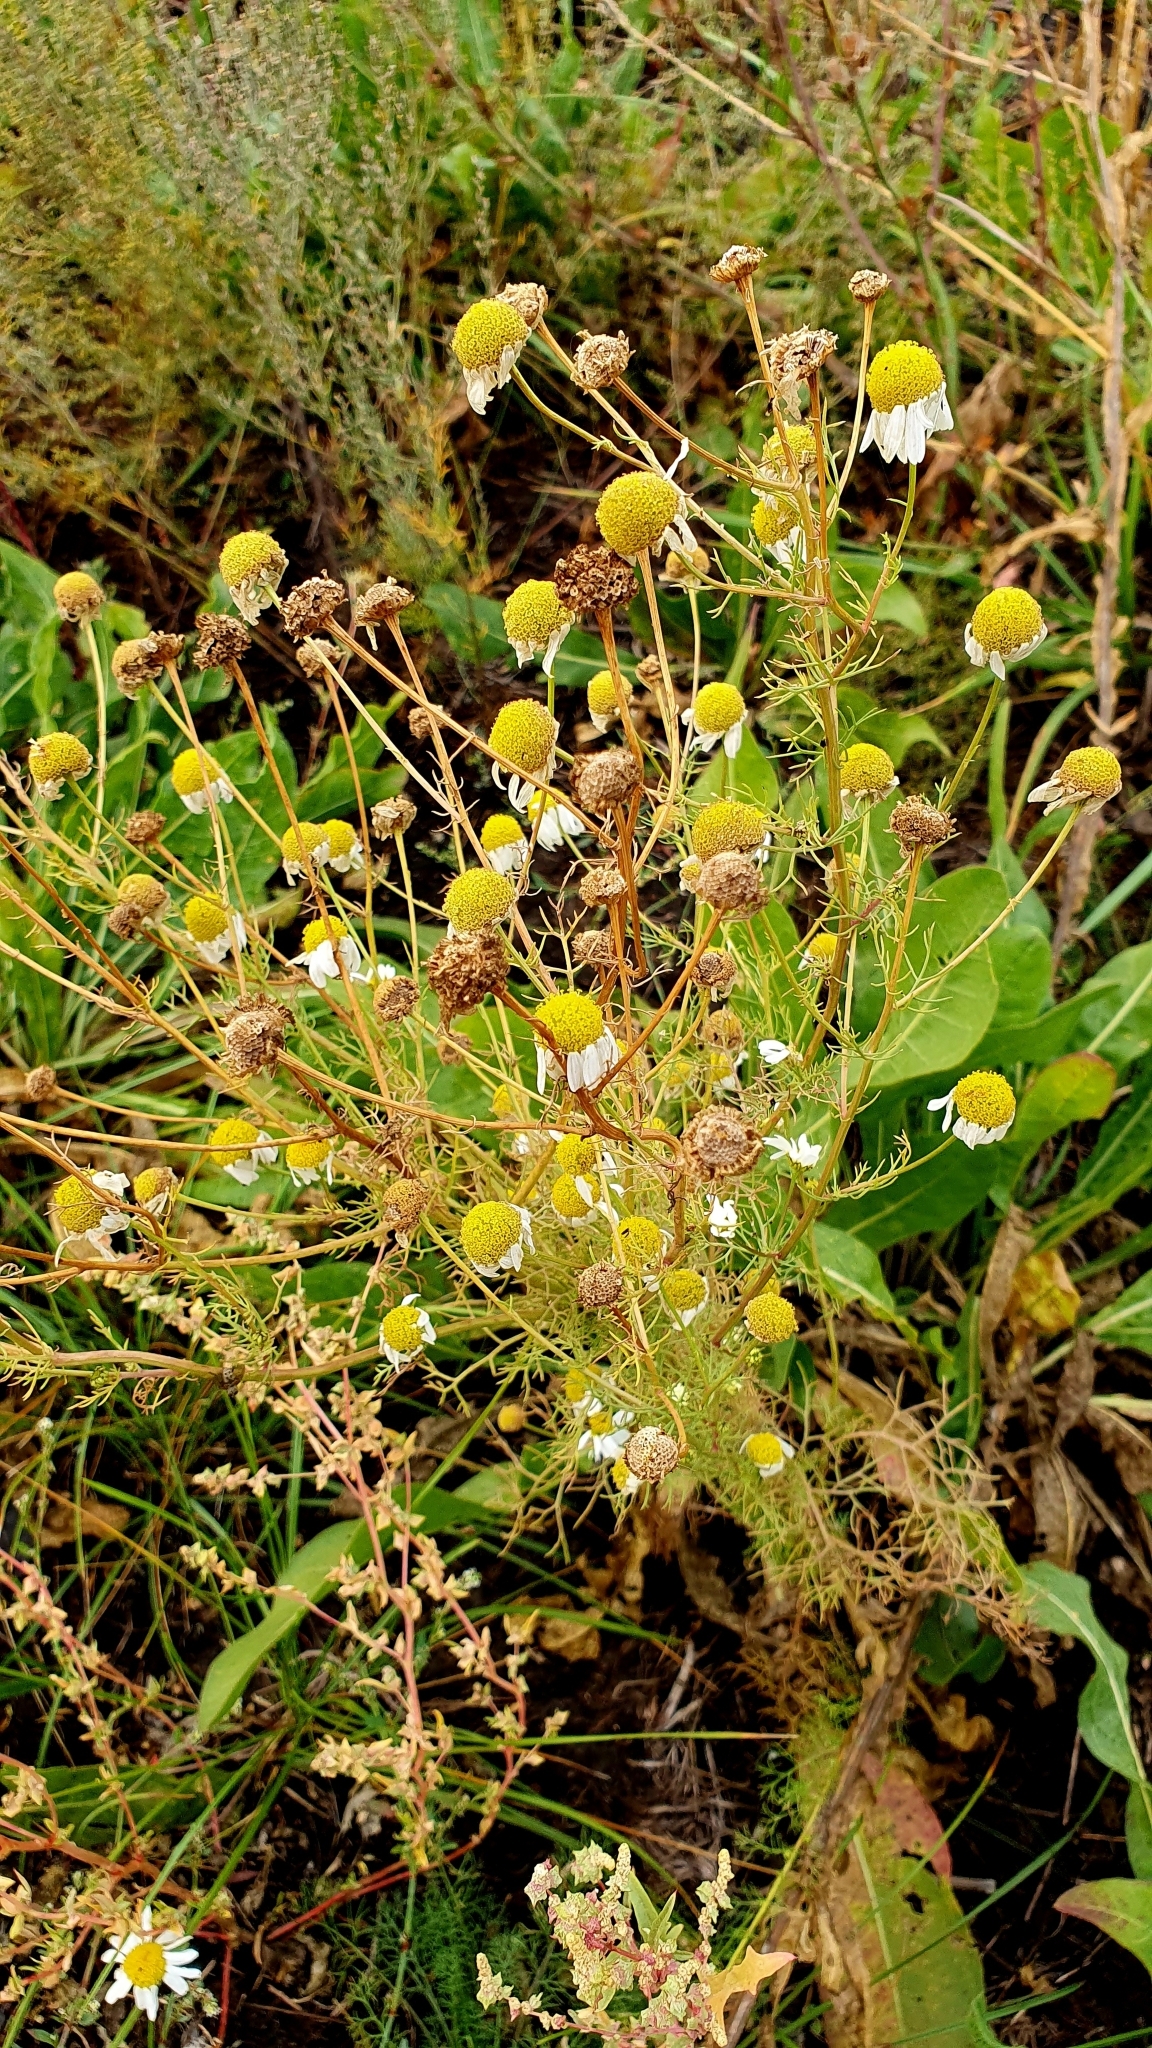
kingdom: Plantae
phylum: Tracheophyta
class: Magnoliopsida
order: Asterales
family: Asteraceae
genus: Tripleurospermum
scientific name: Tripleurospermum inodorum
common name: Scentless mayweed
